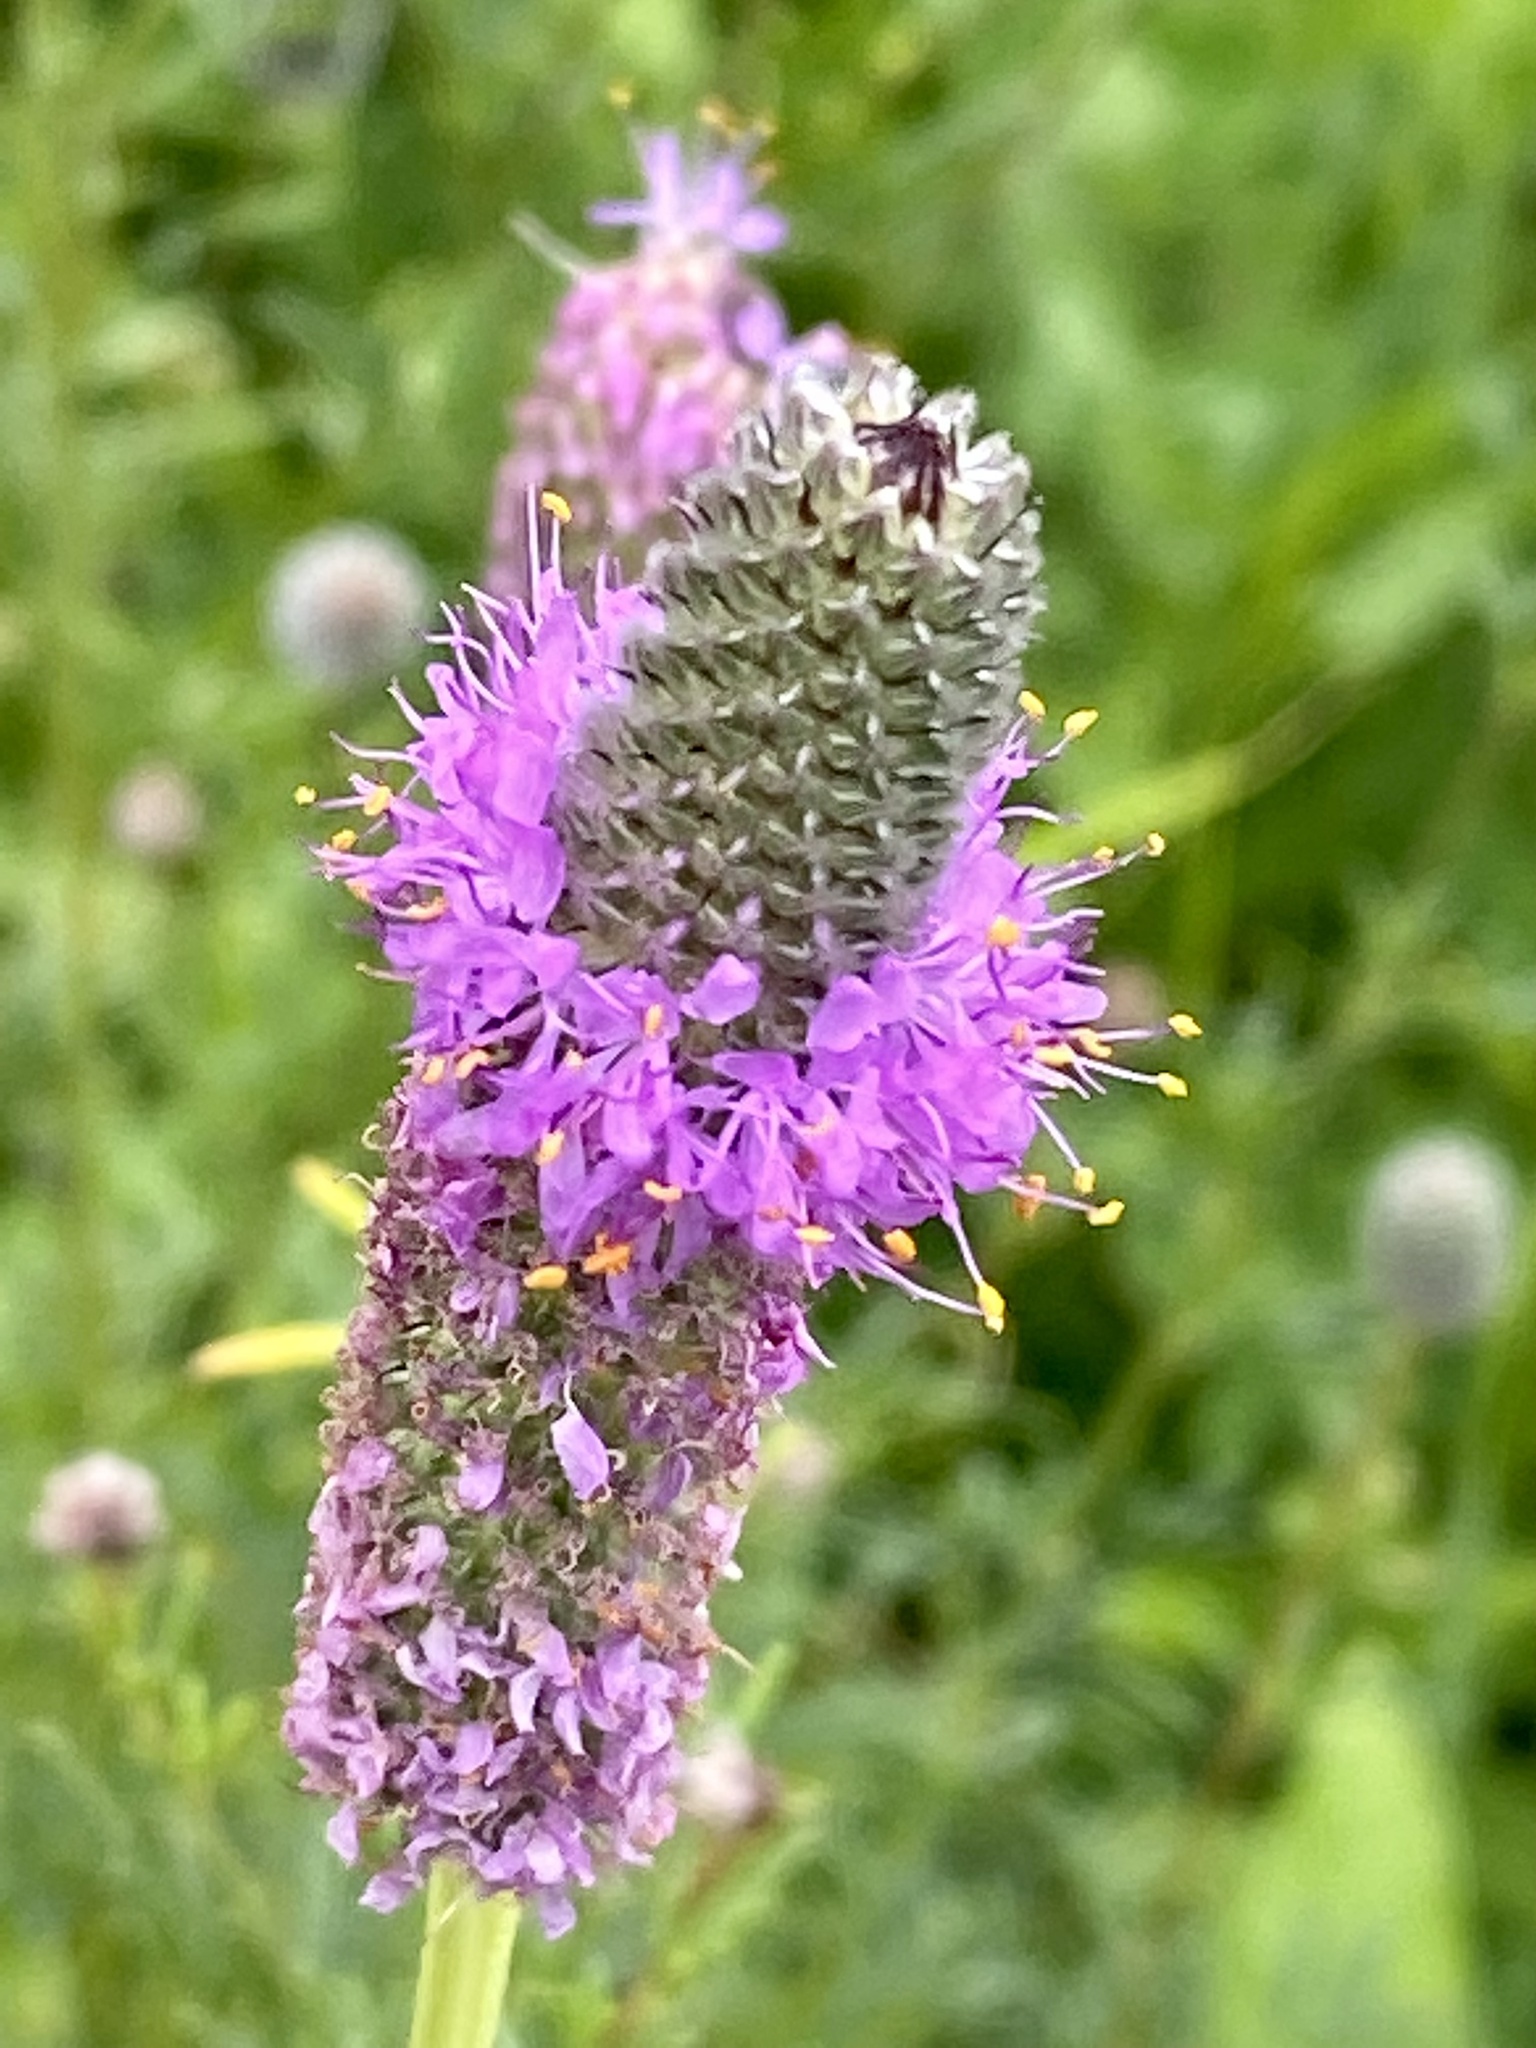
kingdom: Plantae
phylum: Tracheophyta
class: Magnoliopsida
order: Fabales
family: Fabaceae
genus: Dalea
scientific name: Dalea purpurea
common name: Purple prairie-clover
